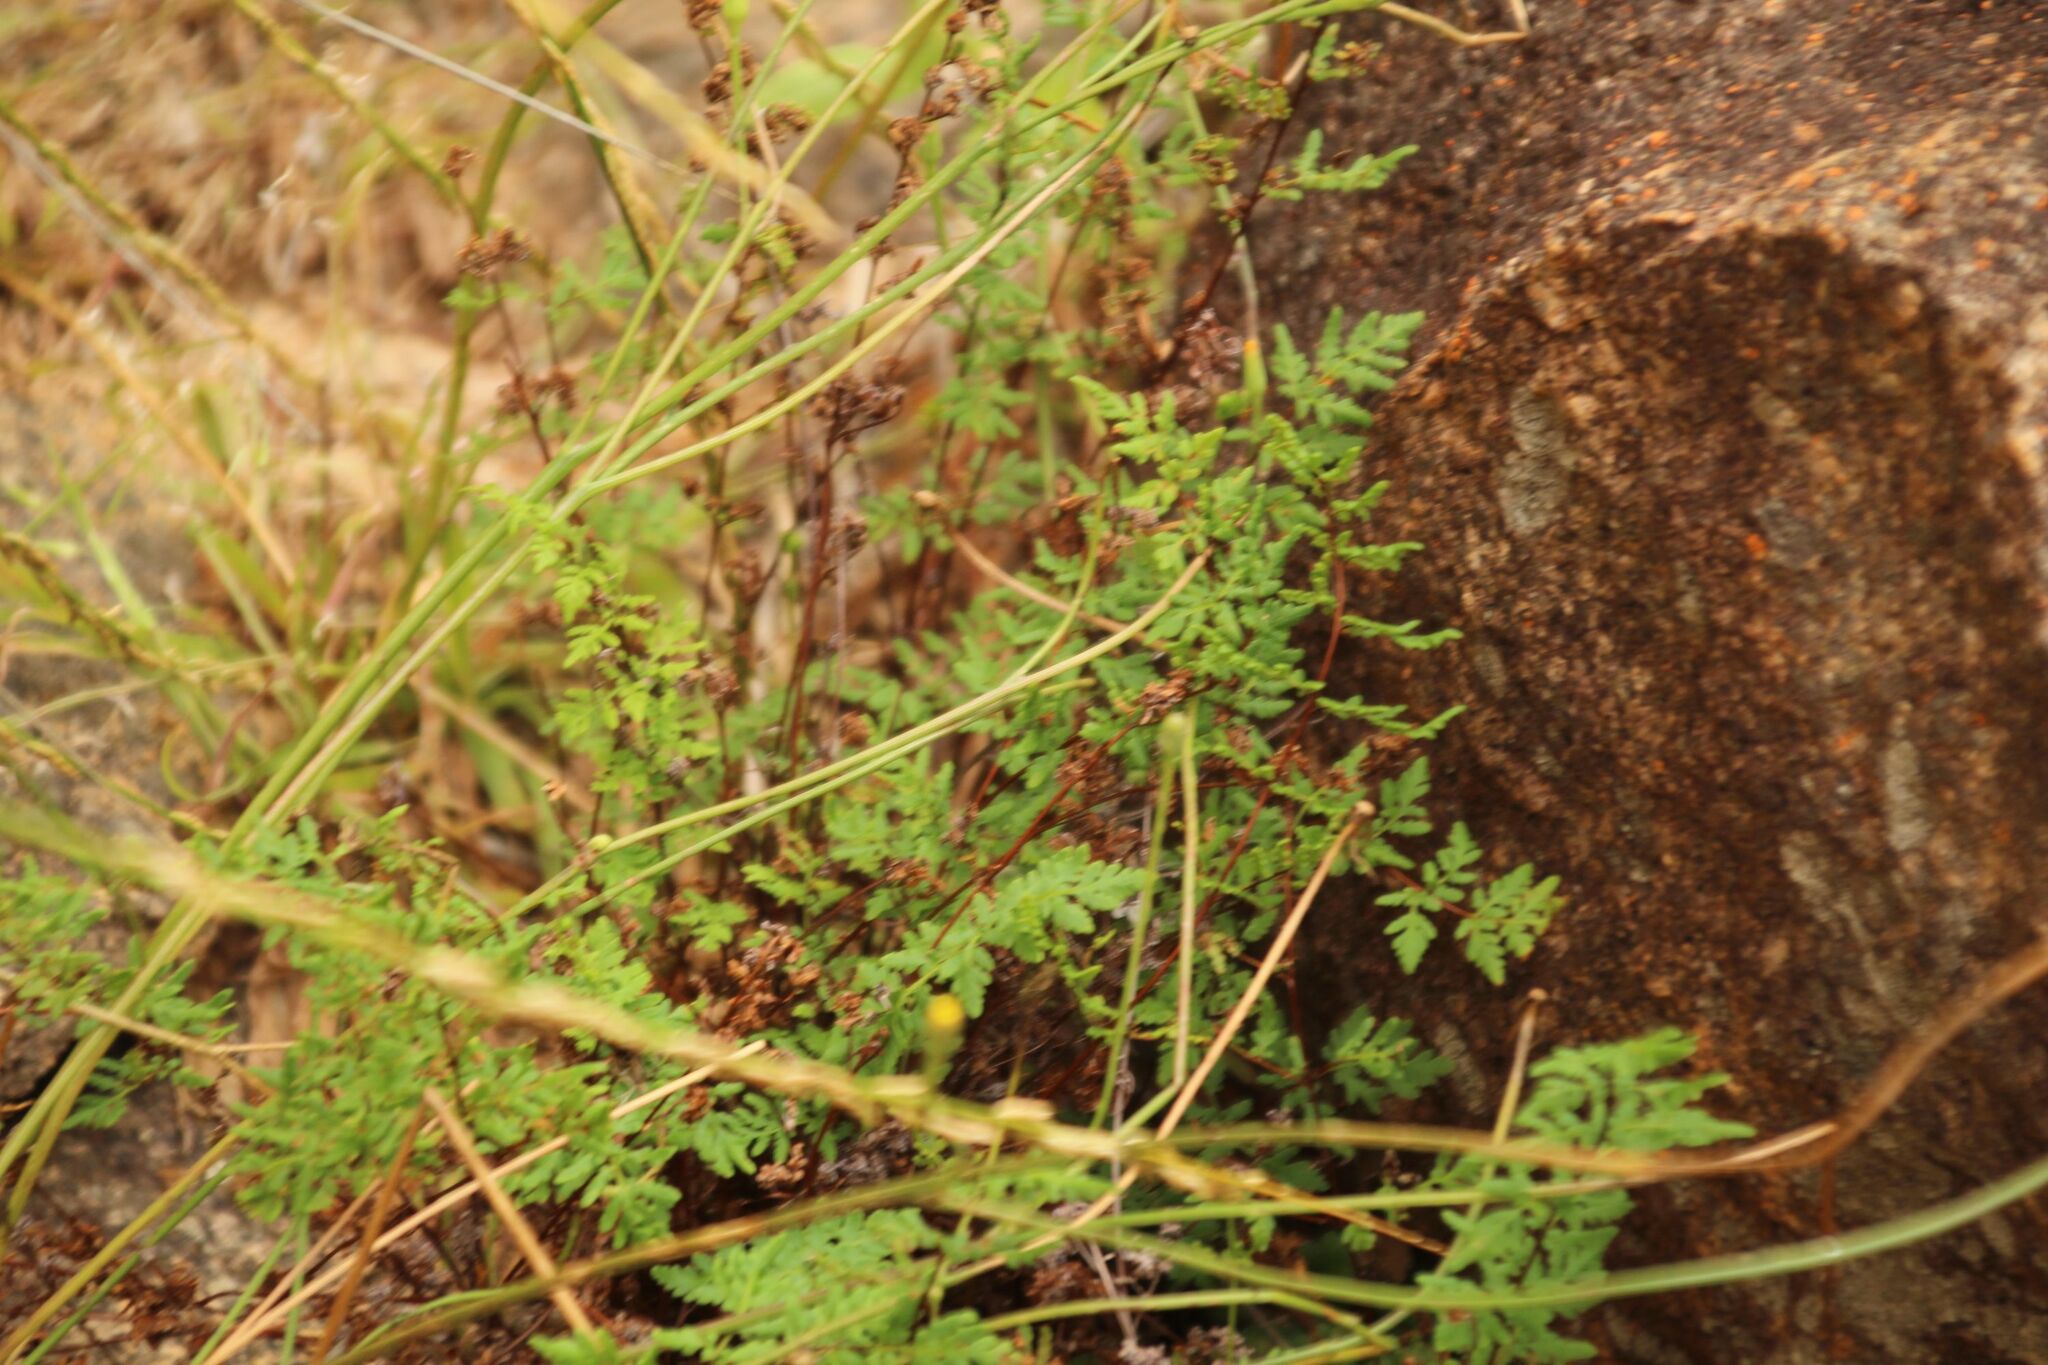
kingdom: Plantae
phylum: Tracheophyta
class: Polypodiopsida
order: Polypodiales
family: Pteridaceae
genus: Cheilanthes
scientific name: Cheilanthes austrotenuifolia
